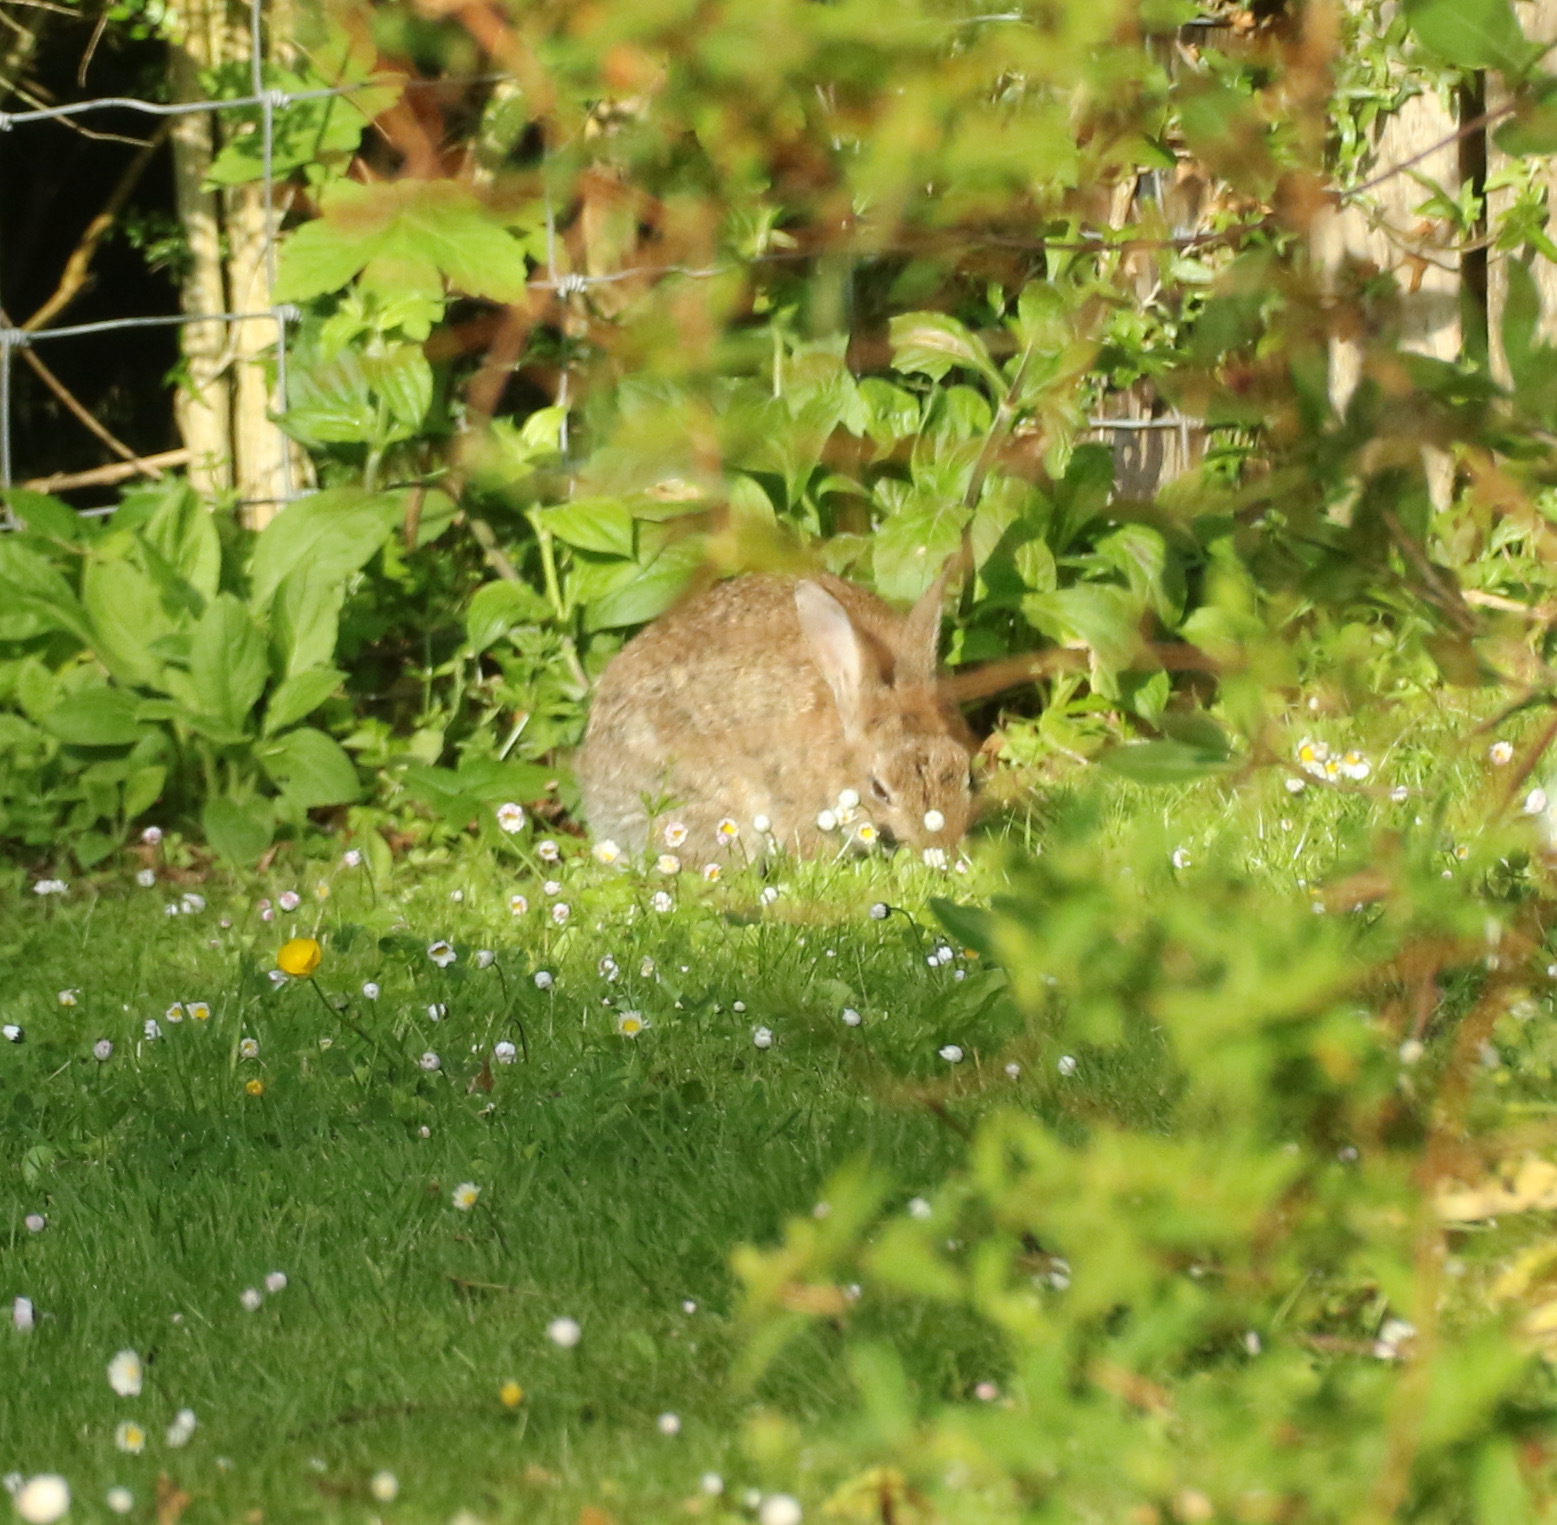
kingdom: Animalia
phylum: Chordata
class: Mammalia
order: Lagomorpha
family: Leporidae
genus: Oryctolagus
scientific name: Oryctolagus cuniculus
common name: European rabbit
